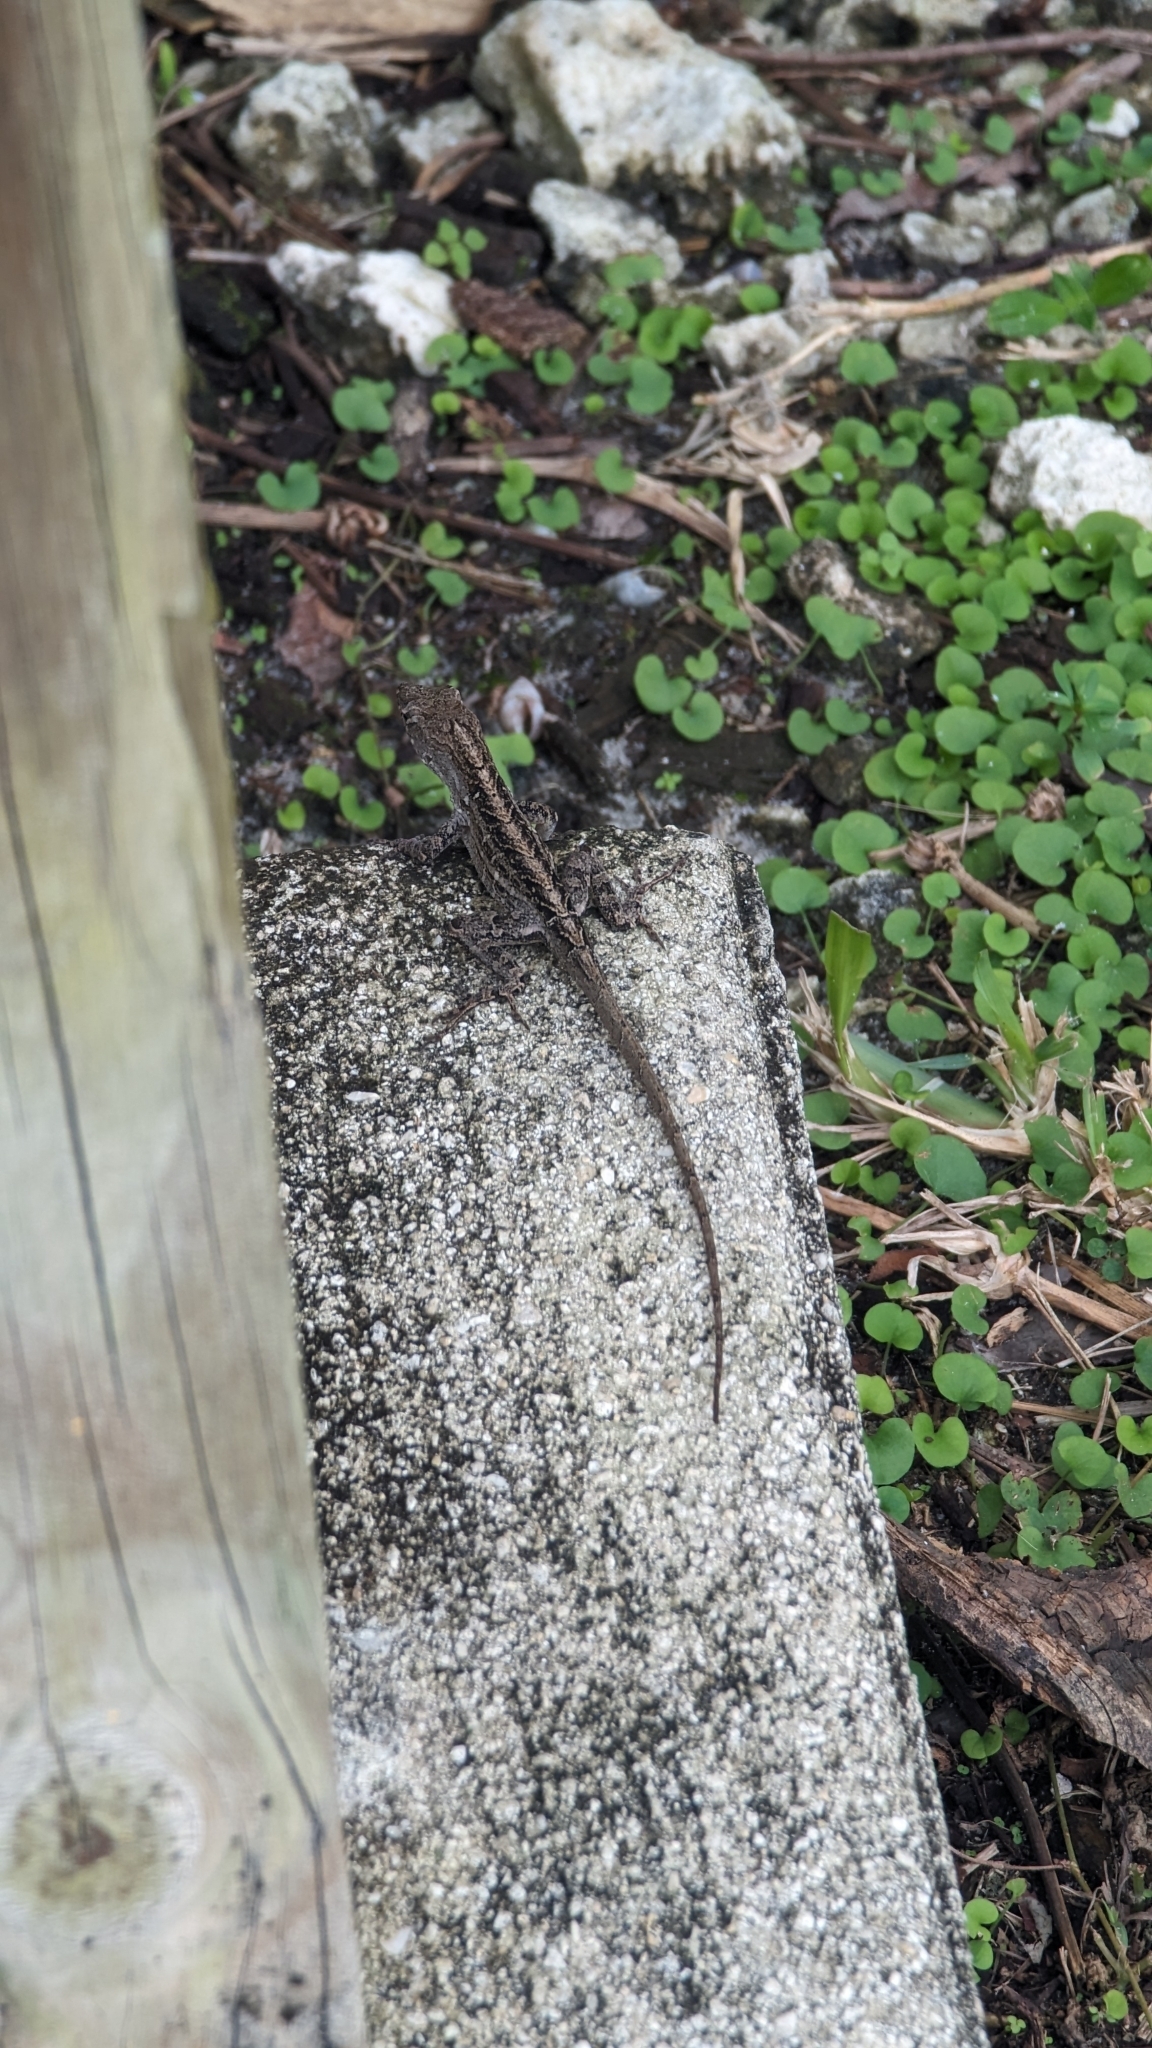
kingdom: Animalia
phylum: Chordata
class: Squamata
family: Dactyloidae
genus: Anolis
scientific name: Anolis sagrei
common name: Brown anole
